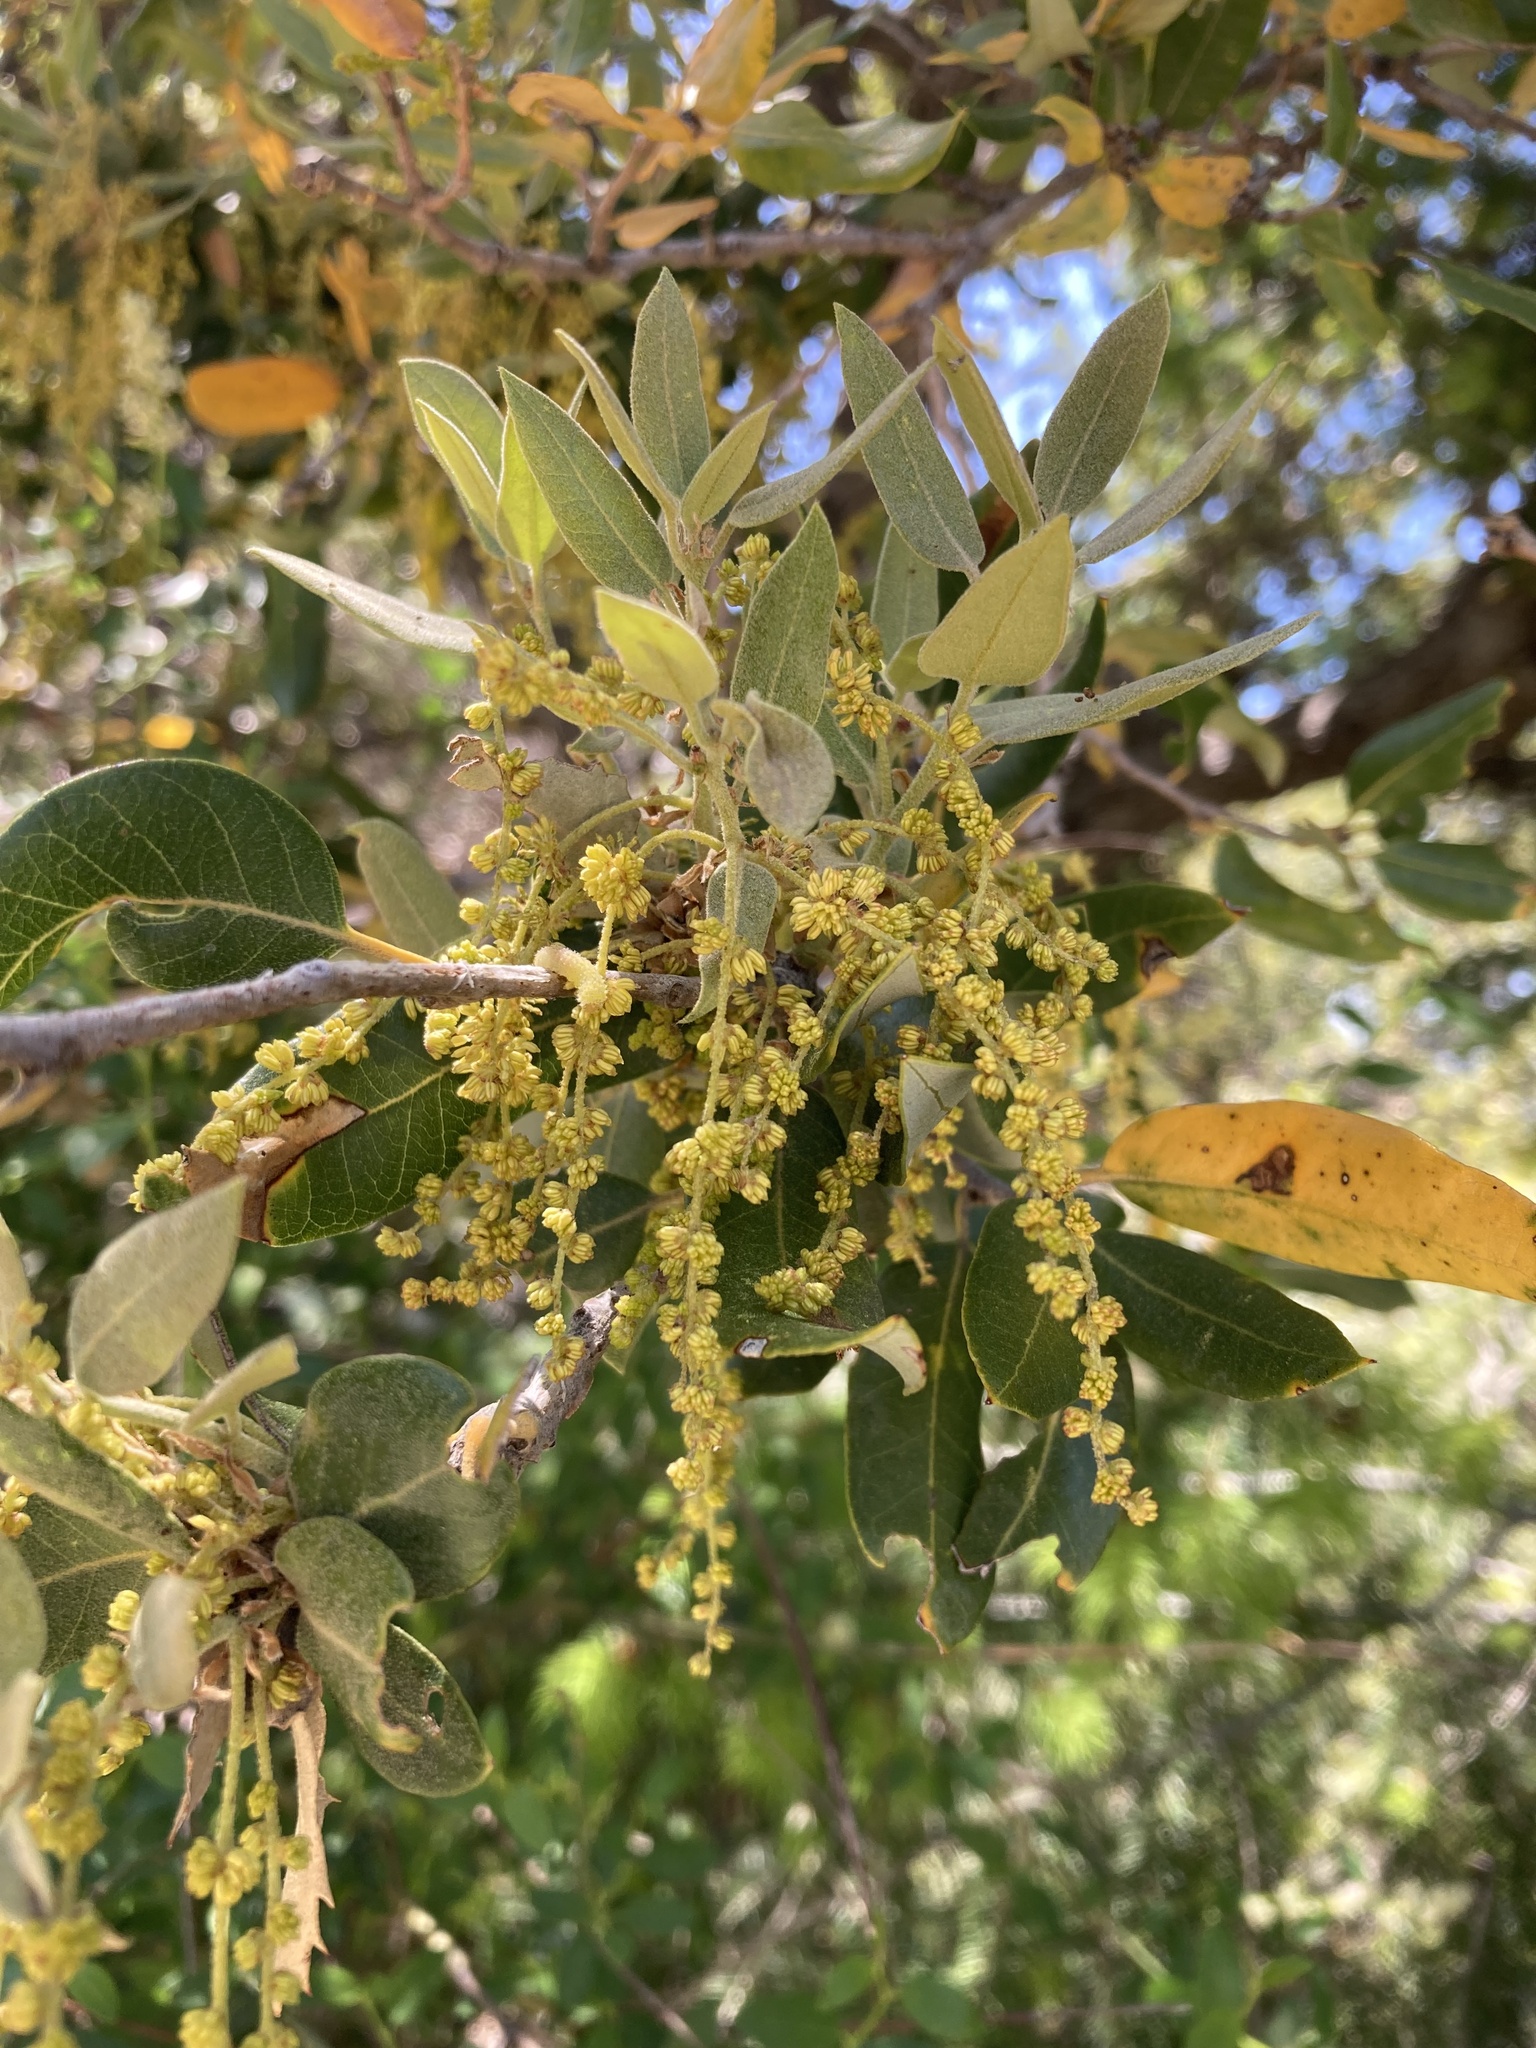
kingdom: Plantae
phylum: Tracheophyta
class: Magnoliopsida
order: Fagales
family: Fagaceae
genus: Quercus
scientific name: Quercus chrysolepis
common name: Canyon live oak
